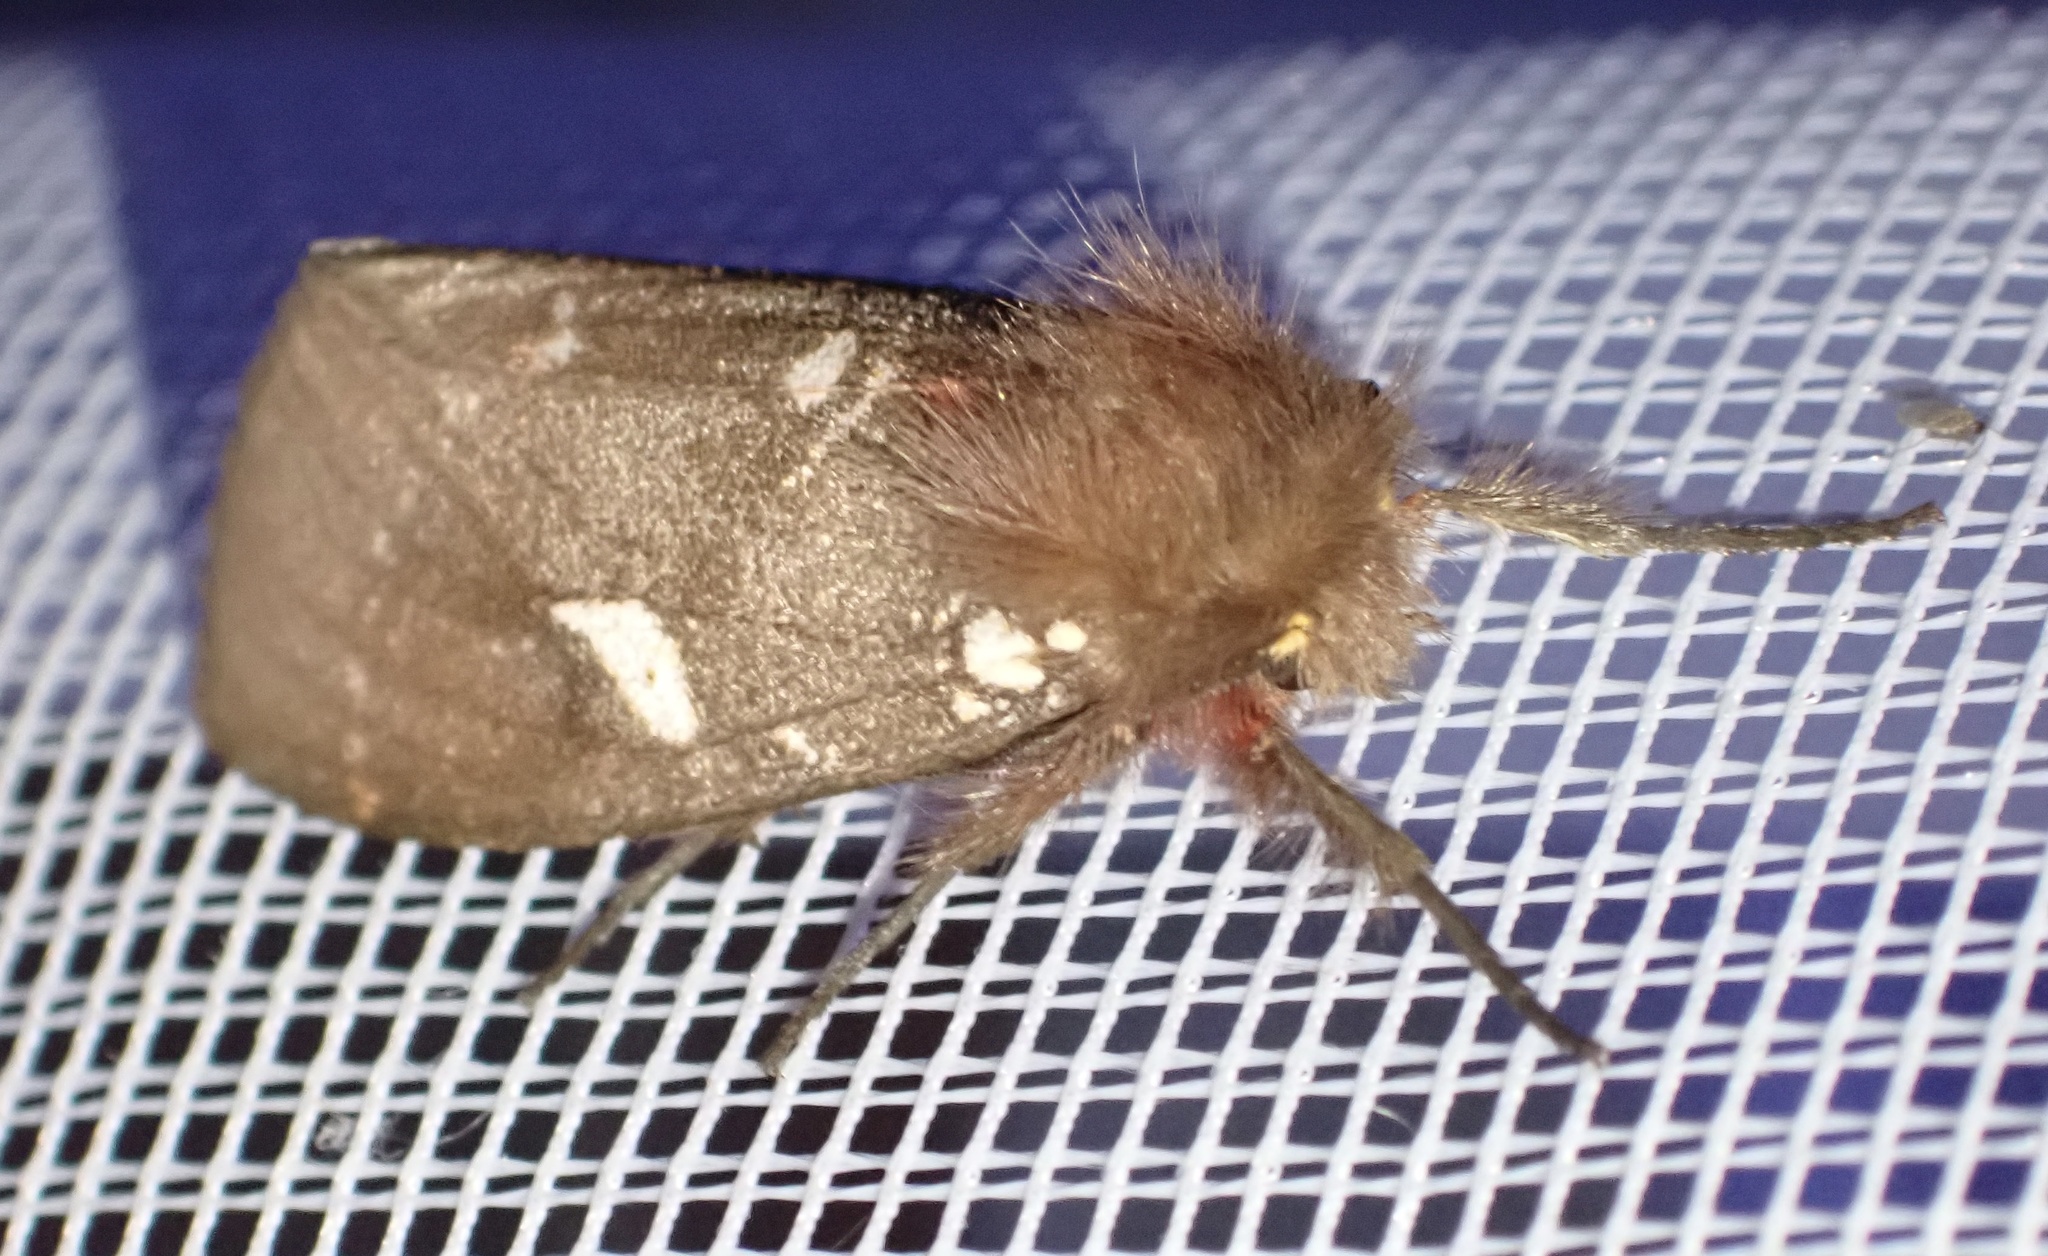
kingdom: Animalia
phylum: Arthropoda
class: Insecta
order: Lepidoptera
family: Erebidae
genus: Lymantria
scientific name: Lymantria Morasa modesta
